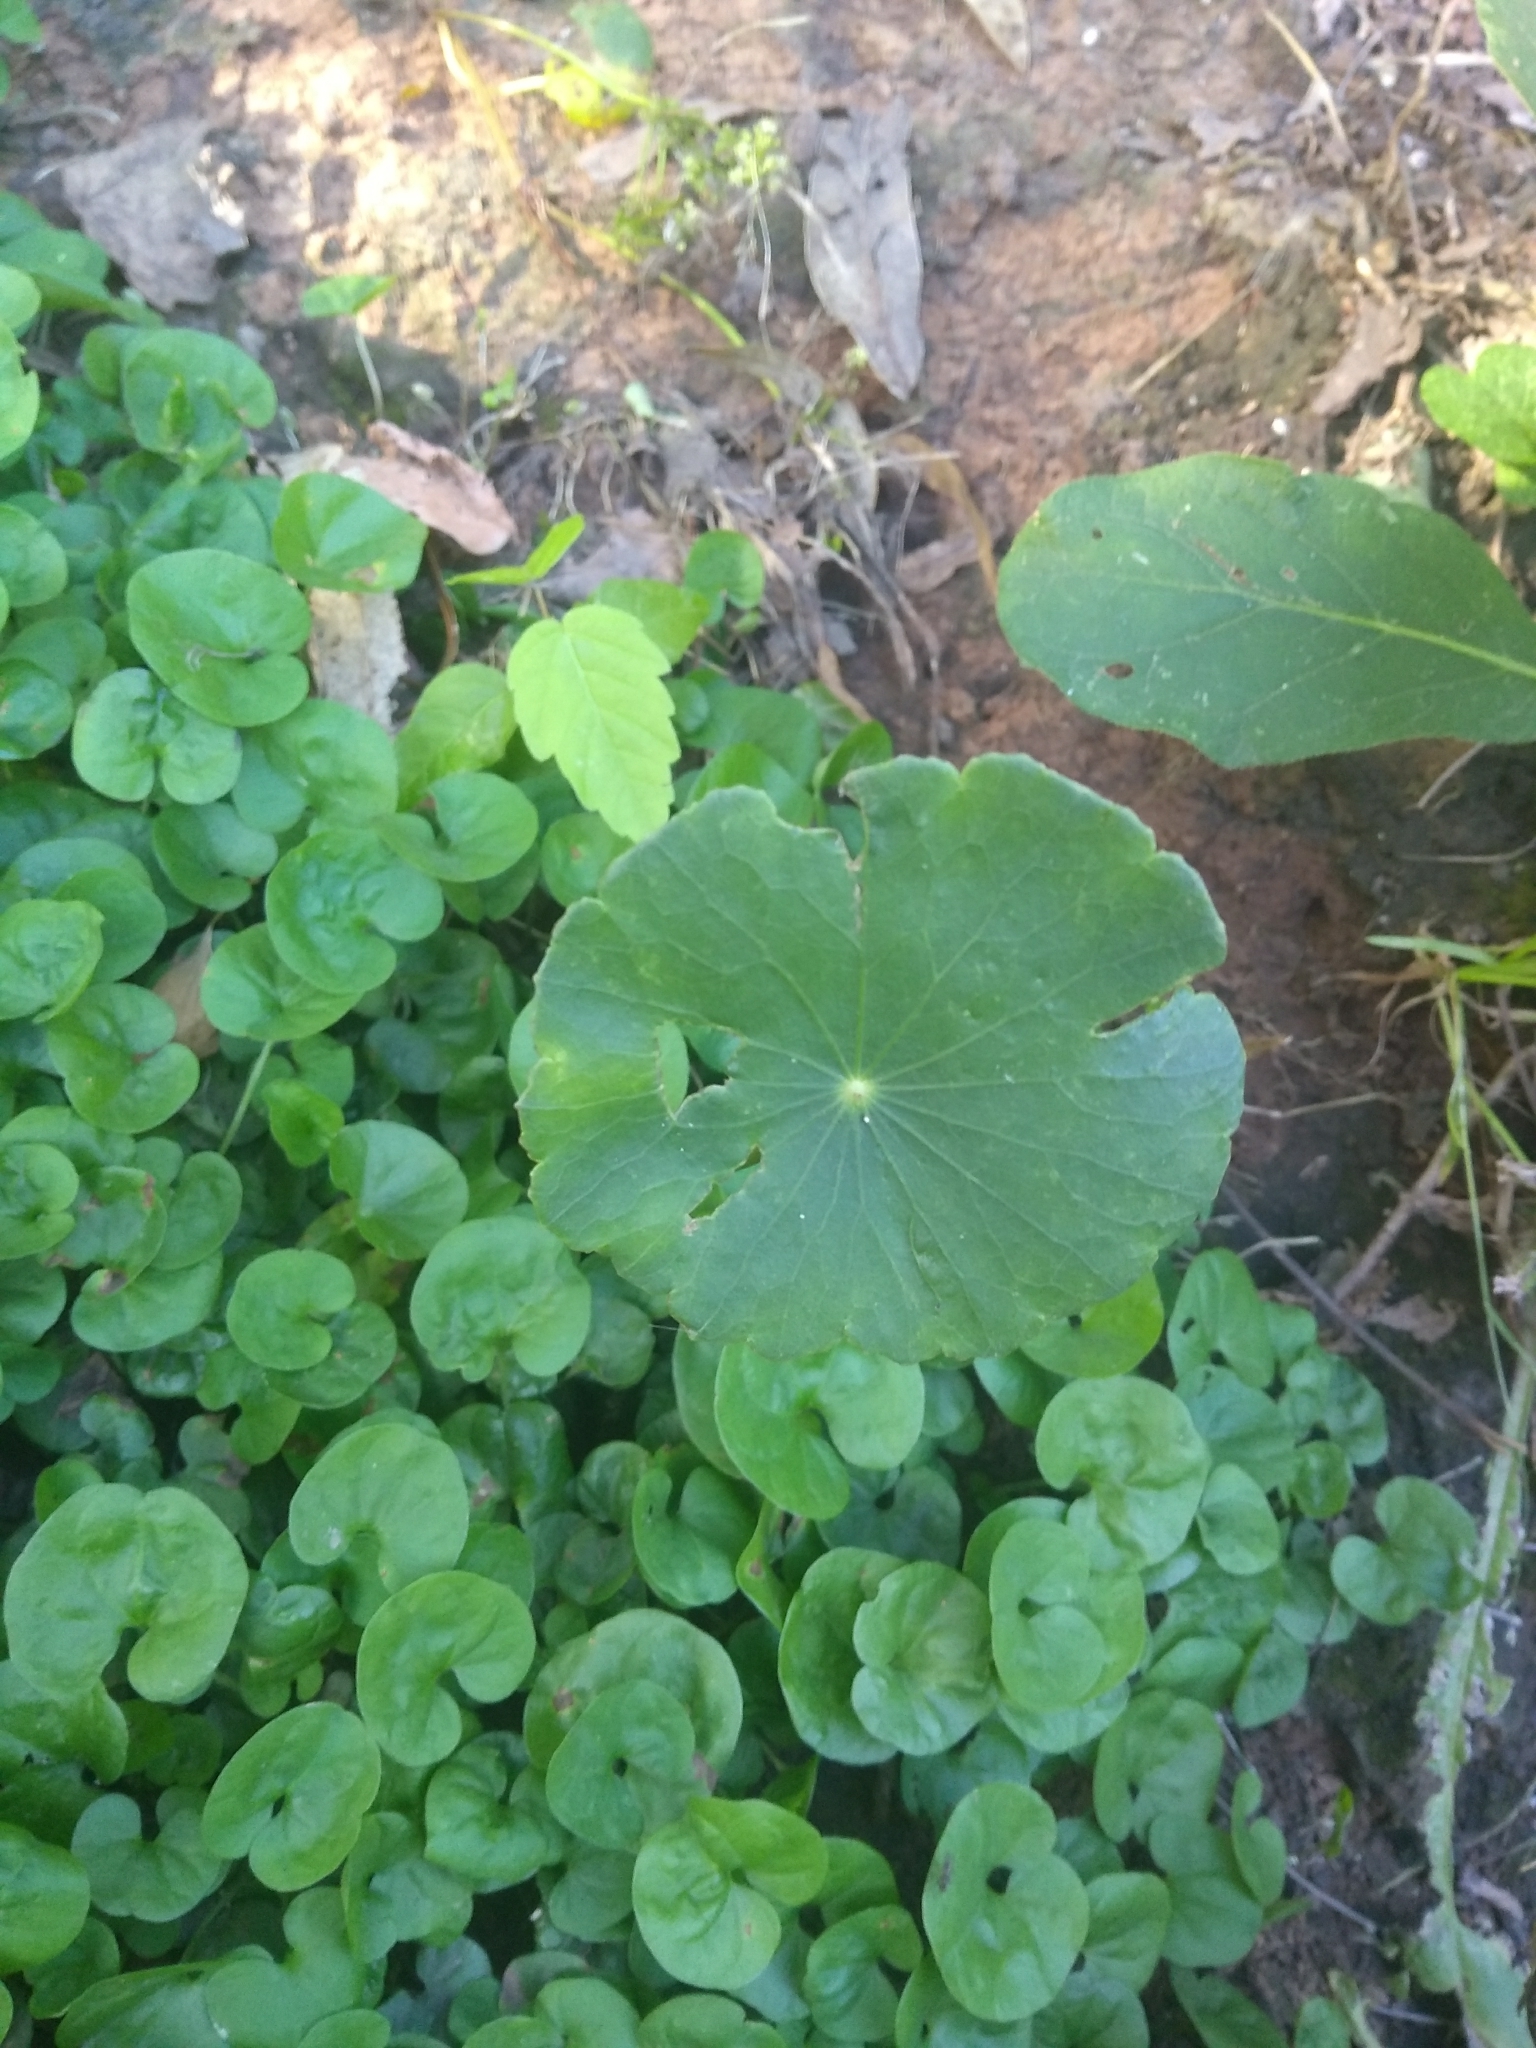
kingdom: Plantae
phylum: Tracheophyta
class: Magnoliopsida
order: Apiales
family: Araliaceae
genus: Hydrocotyle
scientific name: Hydrocotyle bonariensis
